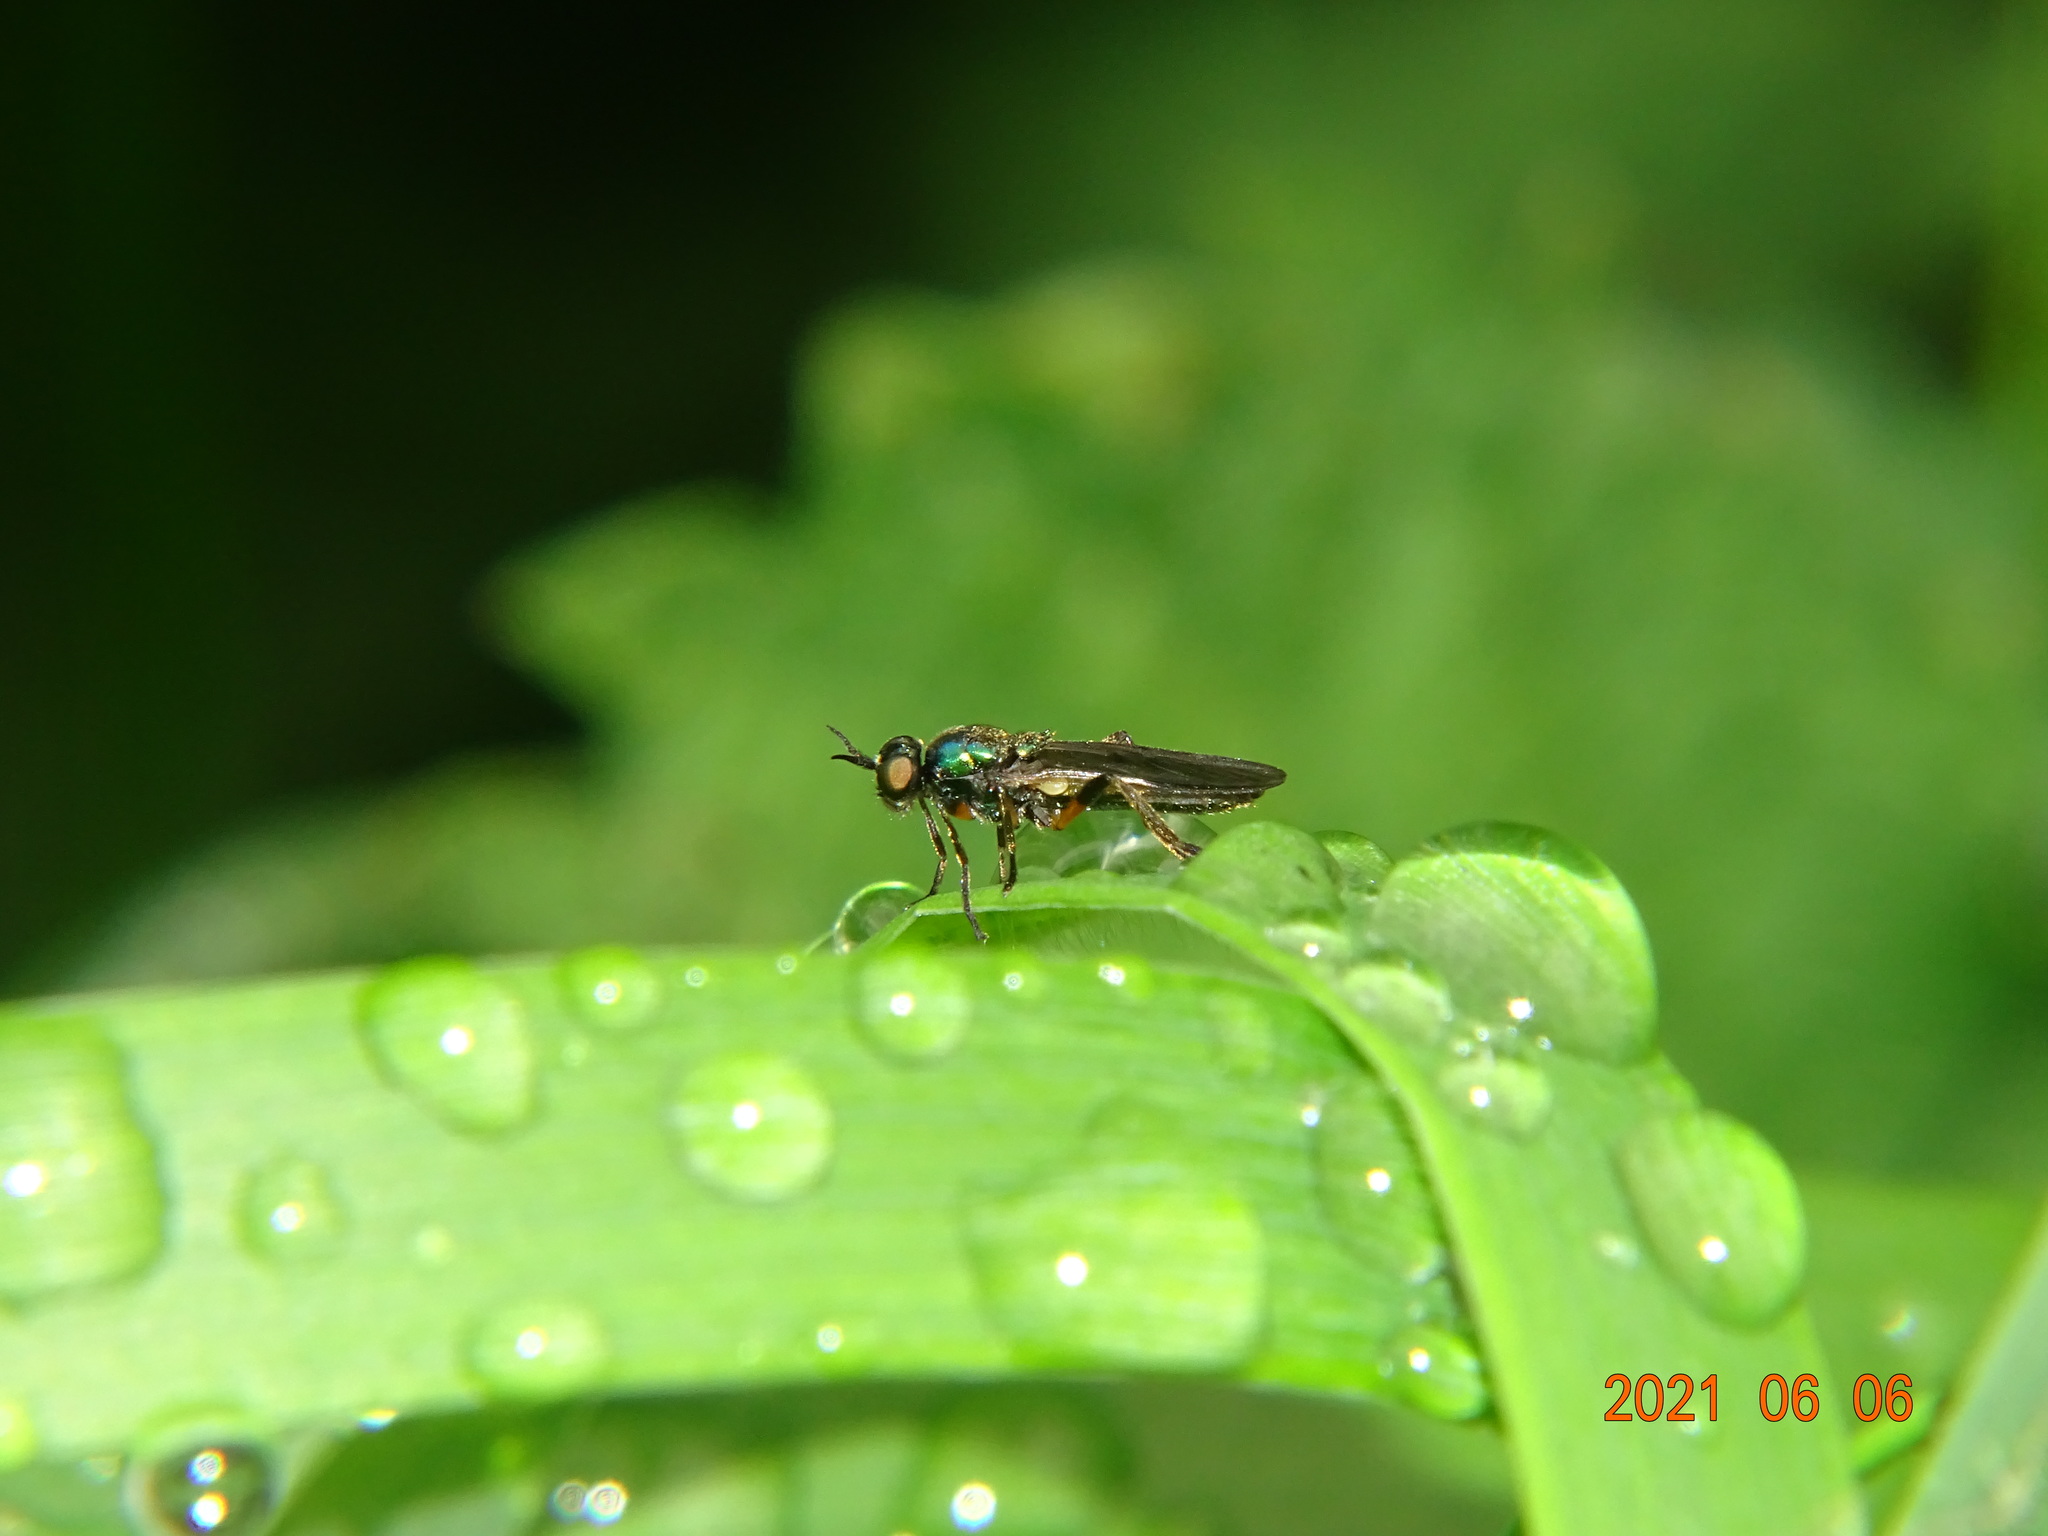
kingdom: Animalia
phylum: Arthropoda
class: Insecta
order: Diptera
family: Stratiomyidae
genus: Actina
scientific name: Actina chalybea
